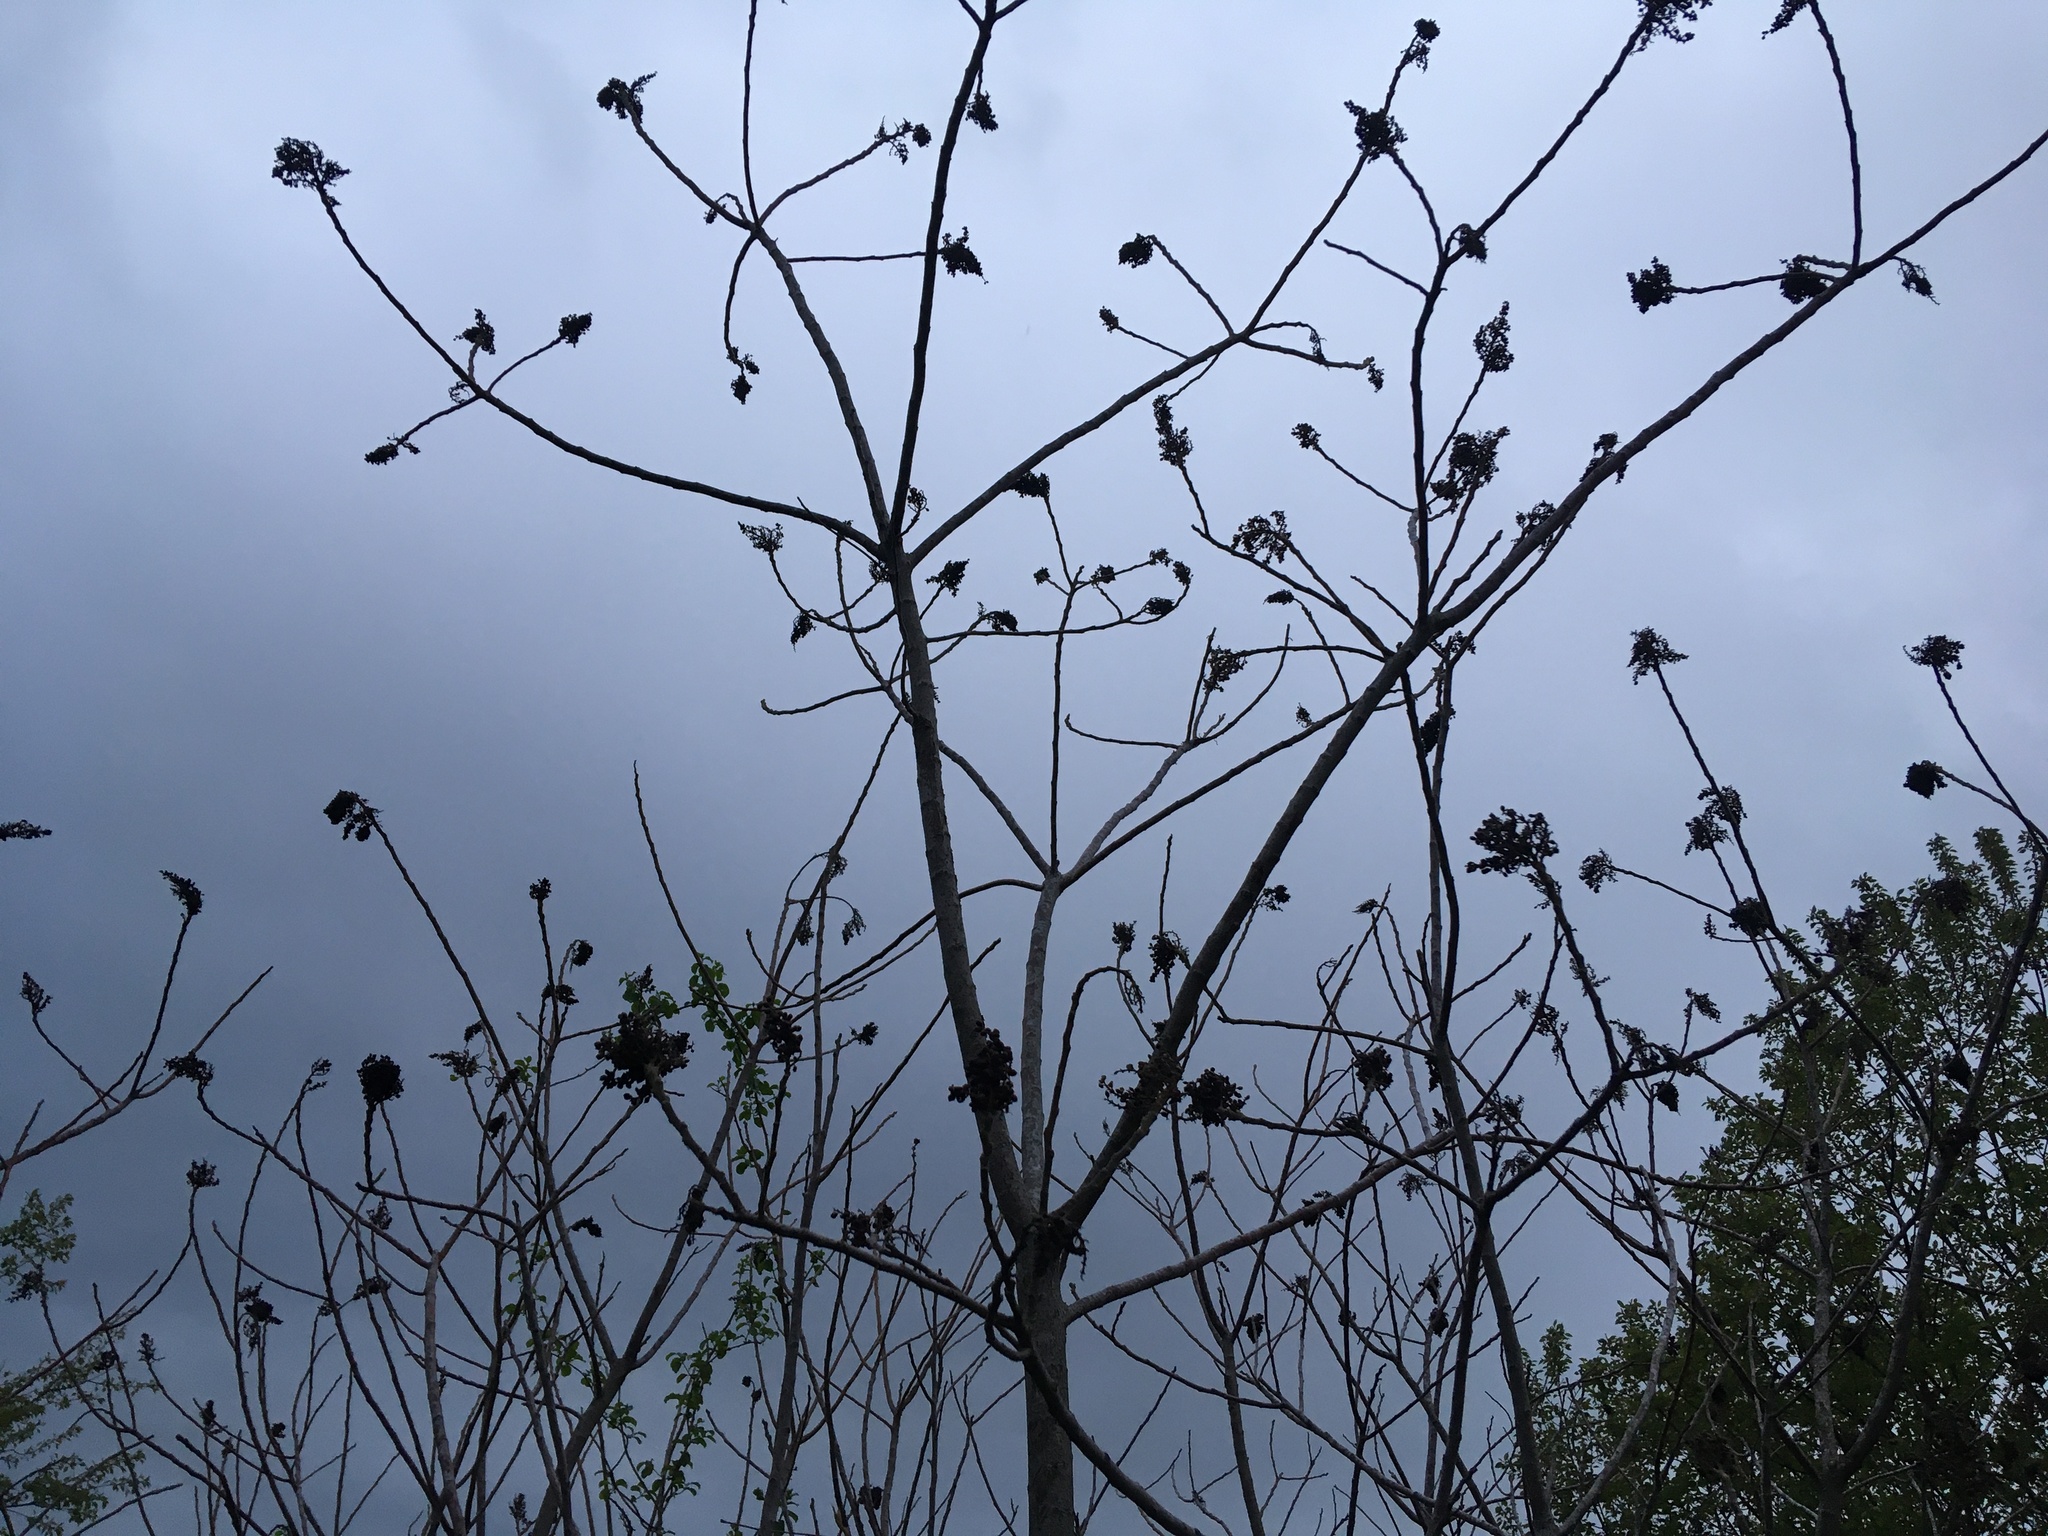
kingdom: Plantae
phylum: Tracheophyta
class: Magnoliopsida
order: Sapindales
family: Anacardiaceae
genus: Rhus
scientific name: Rhus copallina
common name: Shining sumac
